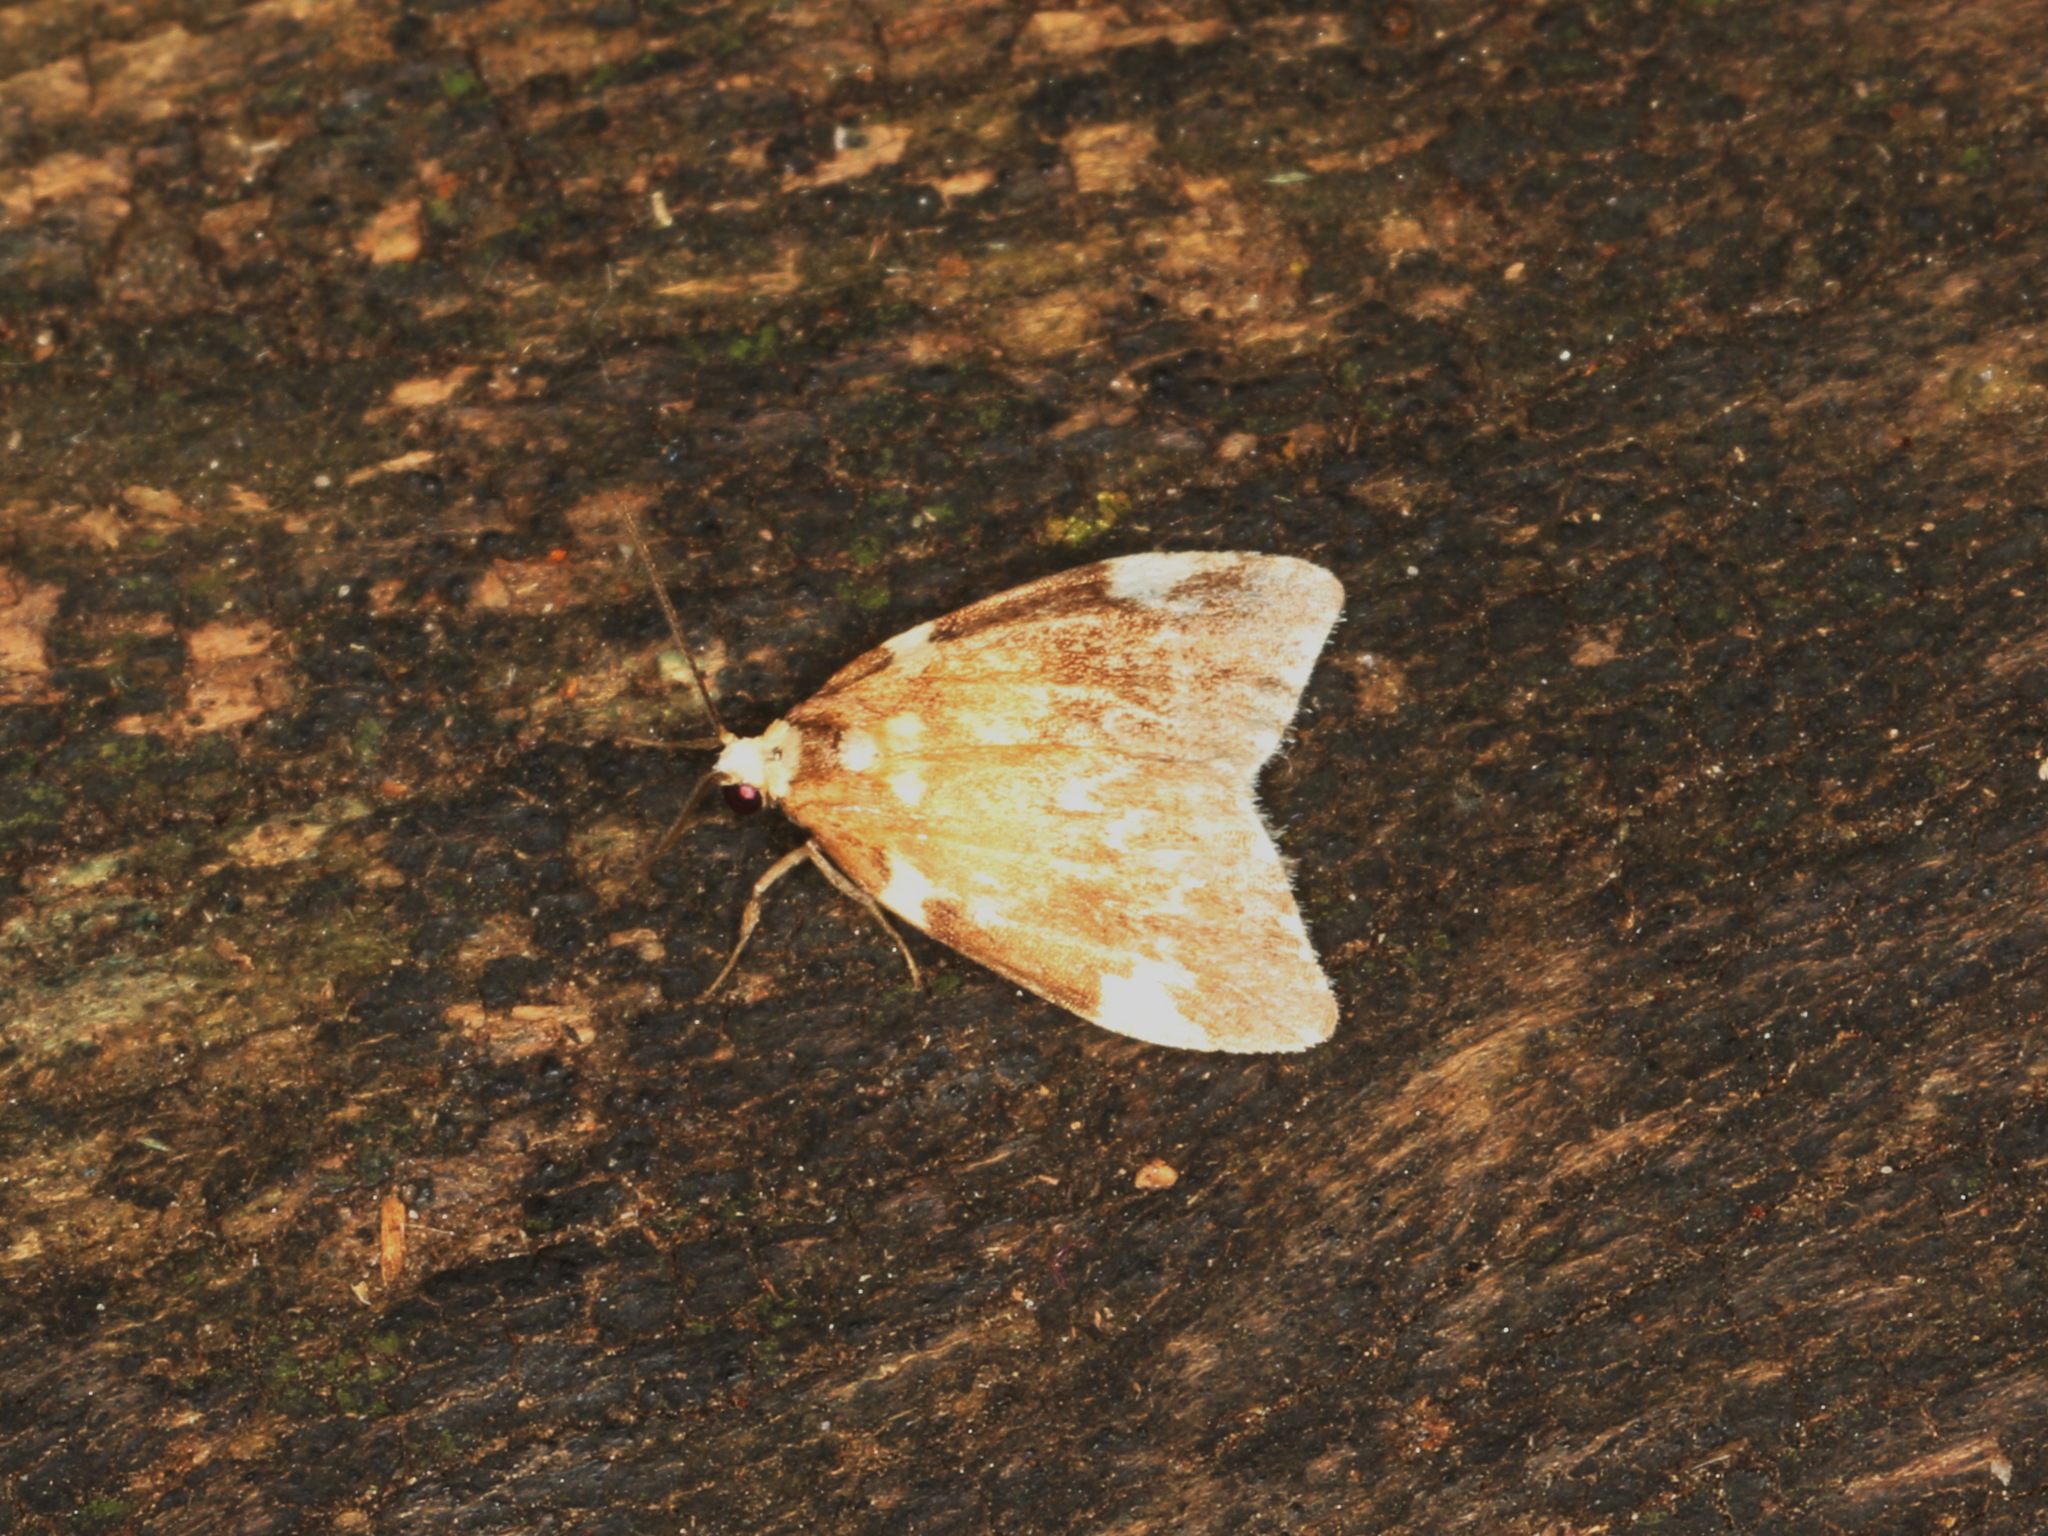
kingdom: Animalia
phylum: Arthropoda
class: Insecta
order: Lepidoptera
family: Erebidae
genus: Halone
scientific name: Halone pteridaula
